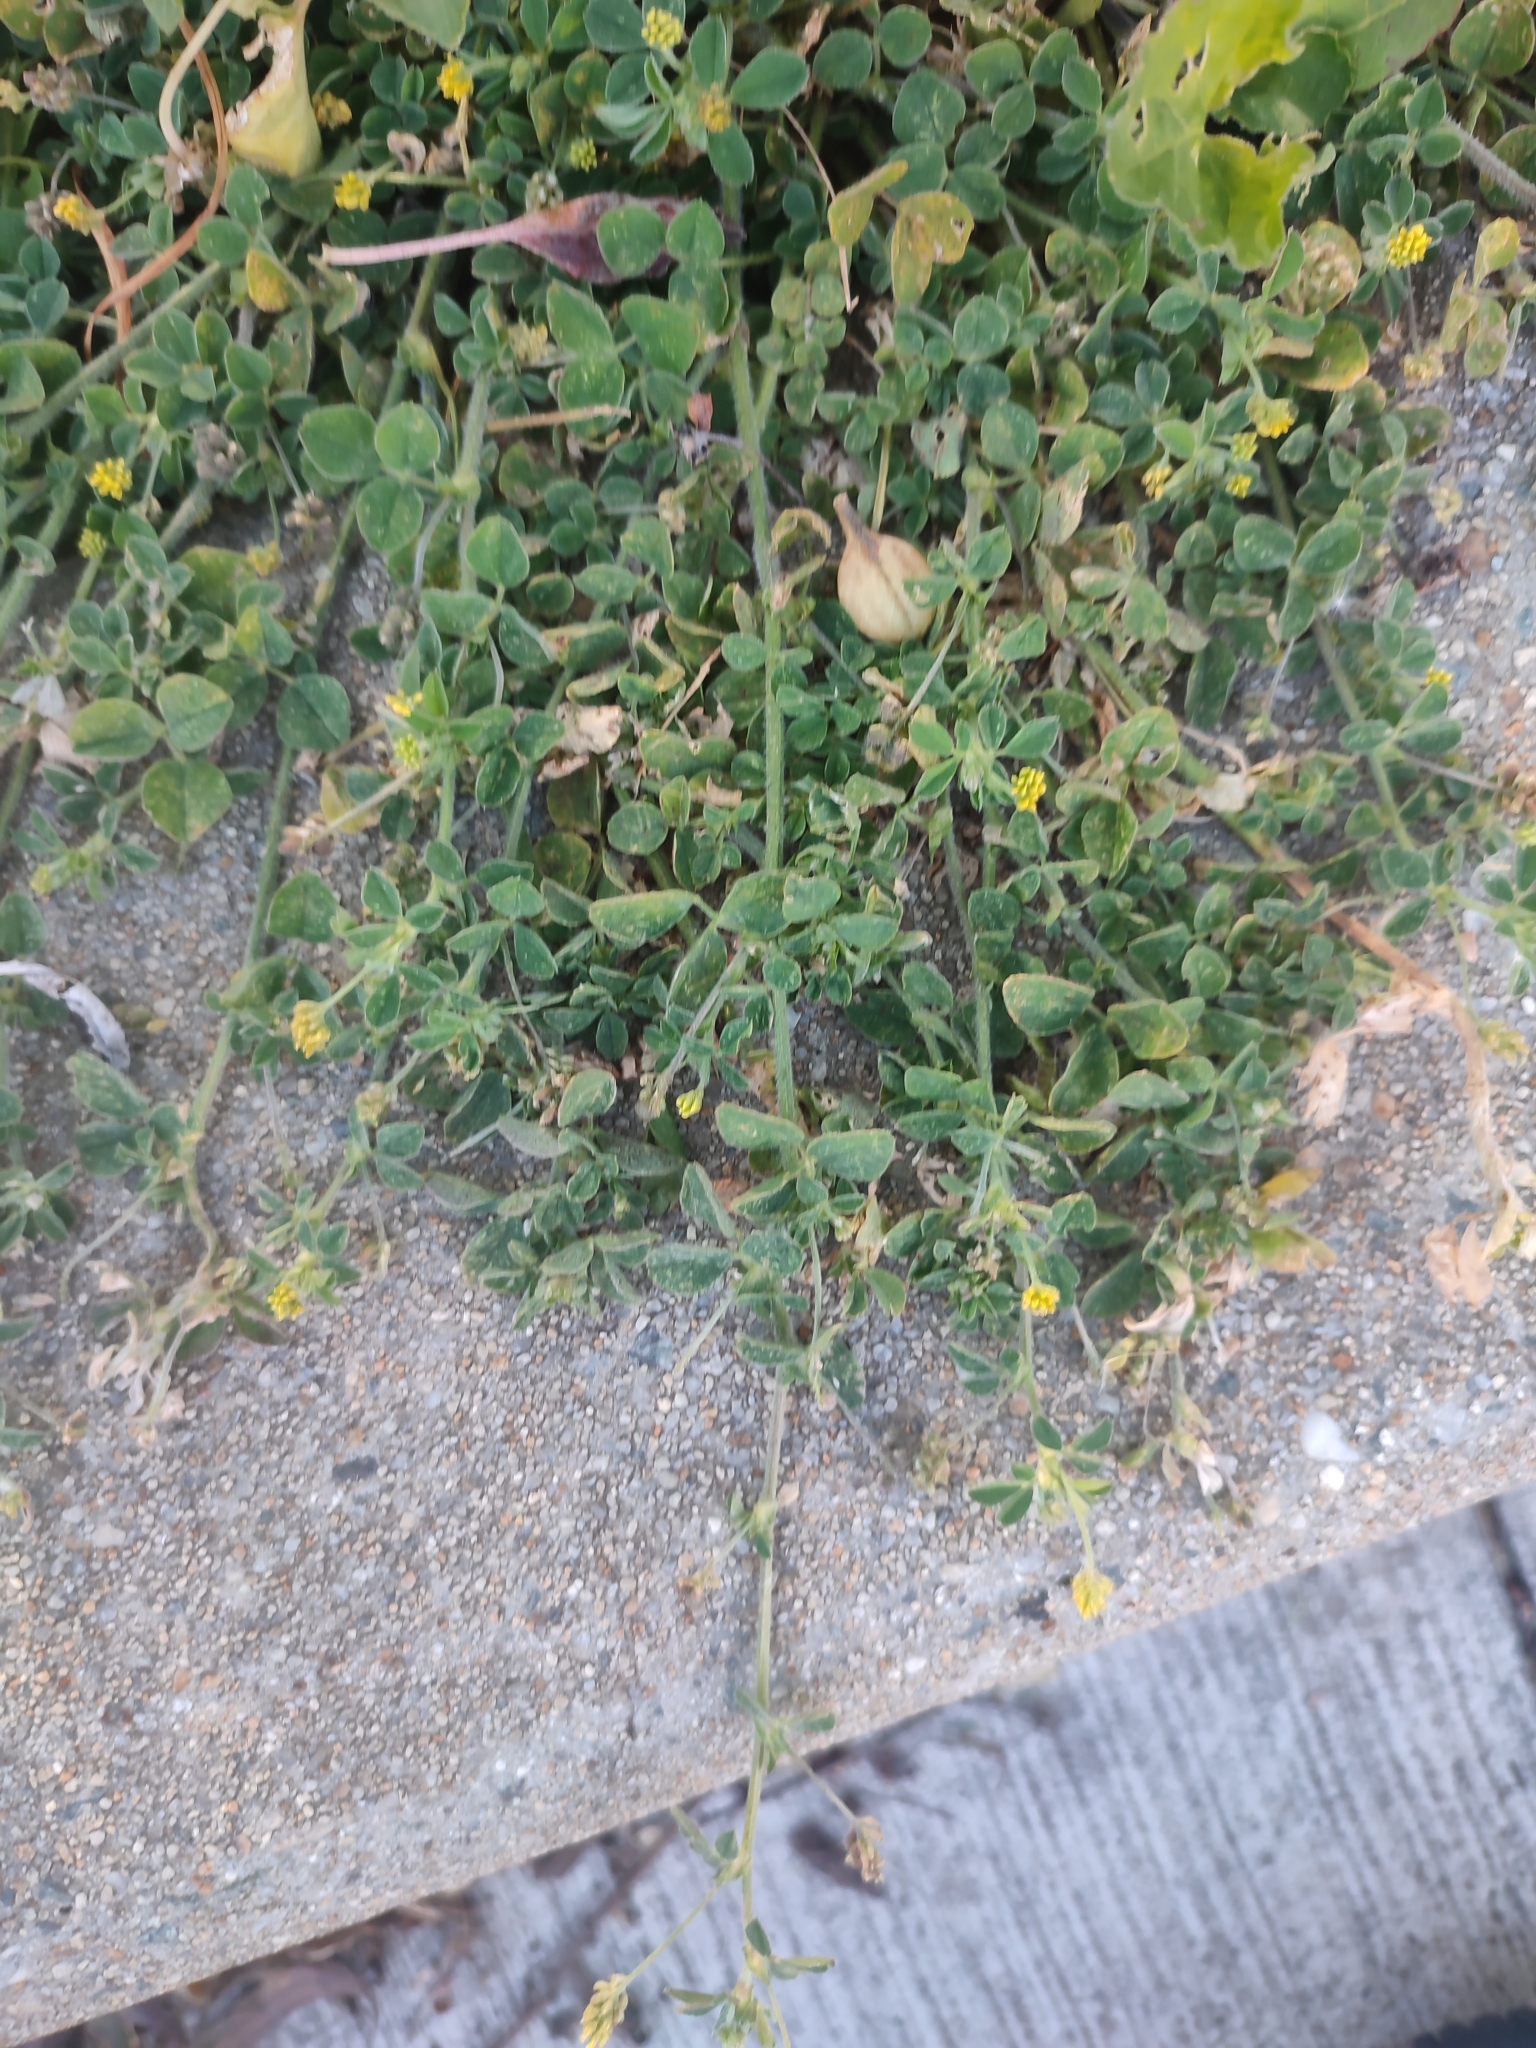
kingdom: Plantae
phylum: Tracheophyta
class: Magnoliopsida
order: Fabales
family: Fabaceae
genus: Medicago
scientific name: Medicago lupulina
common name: Black medick
